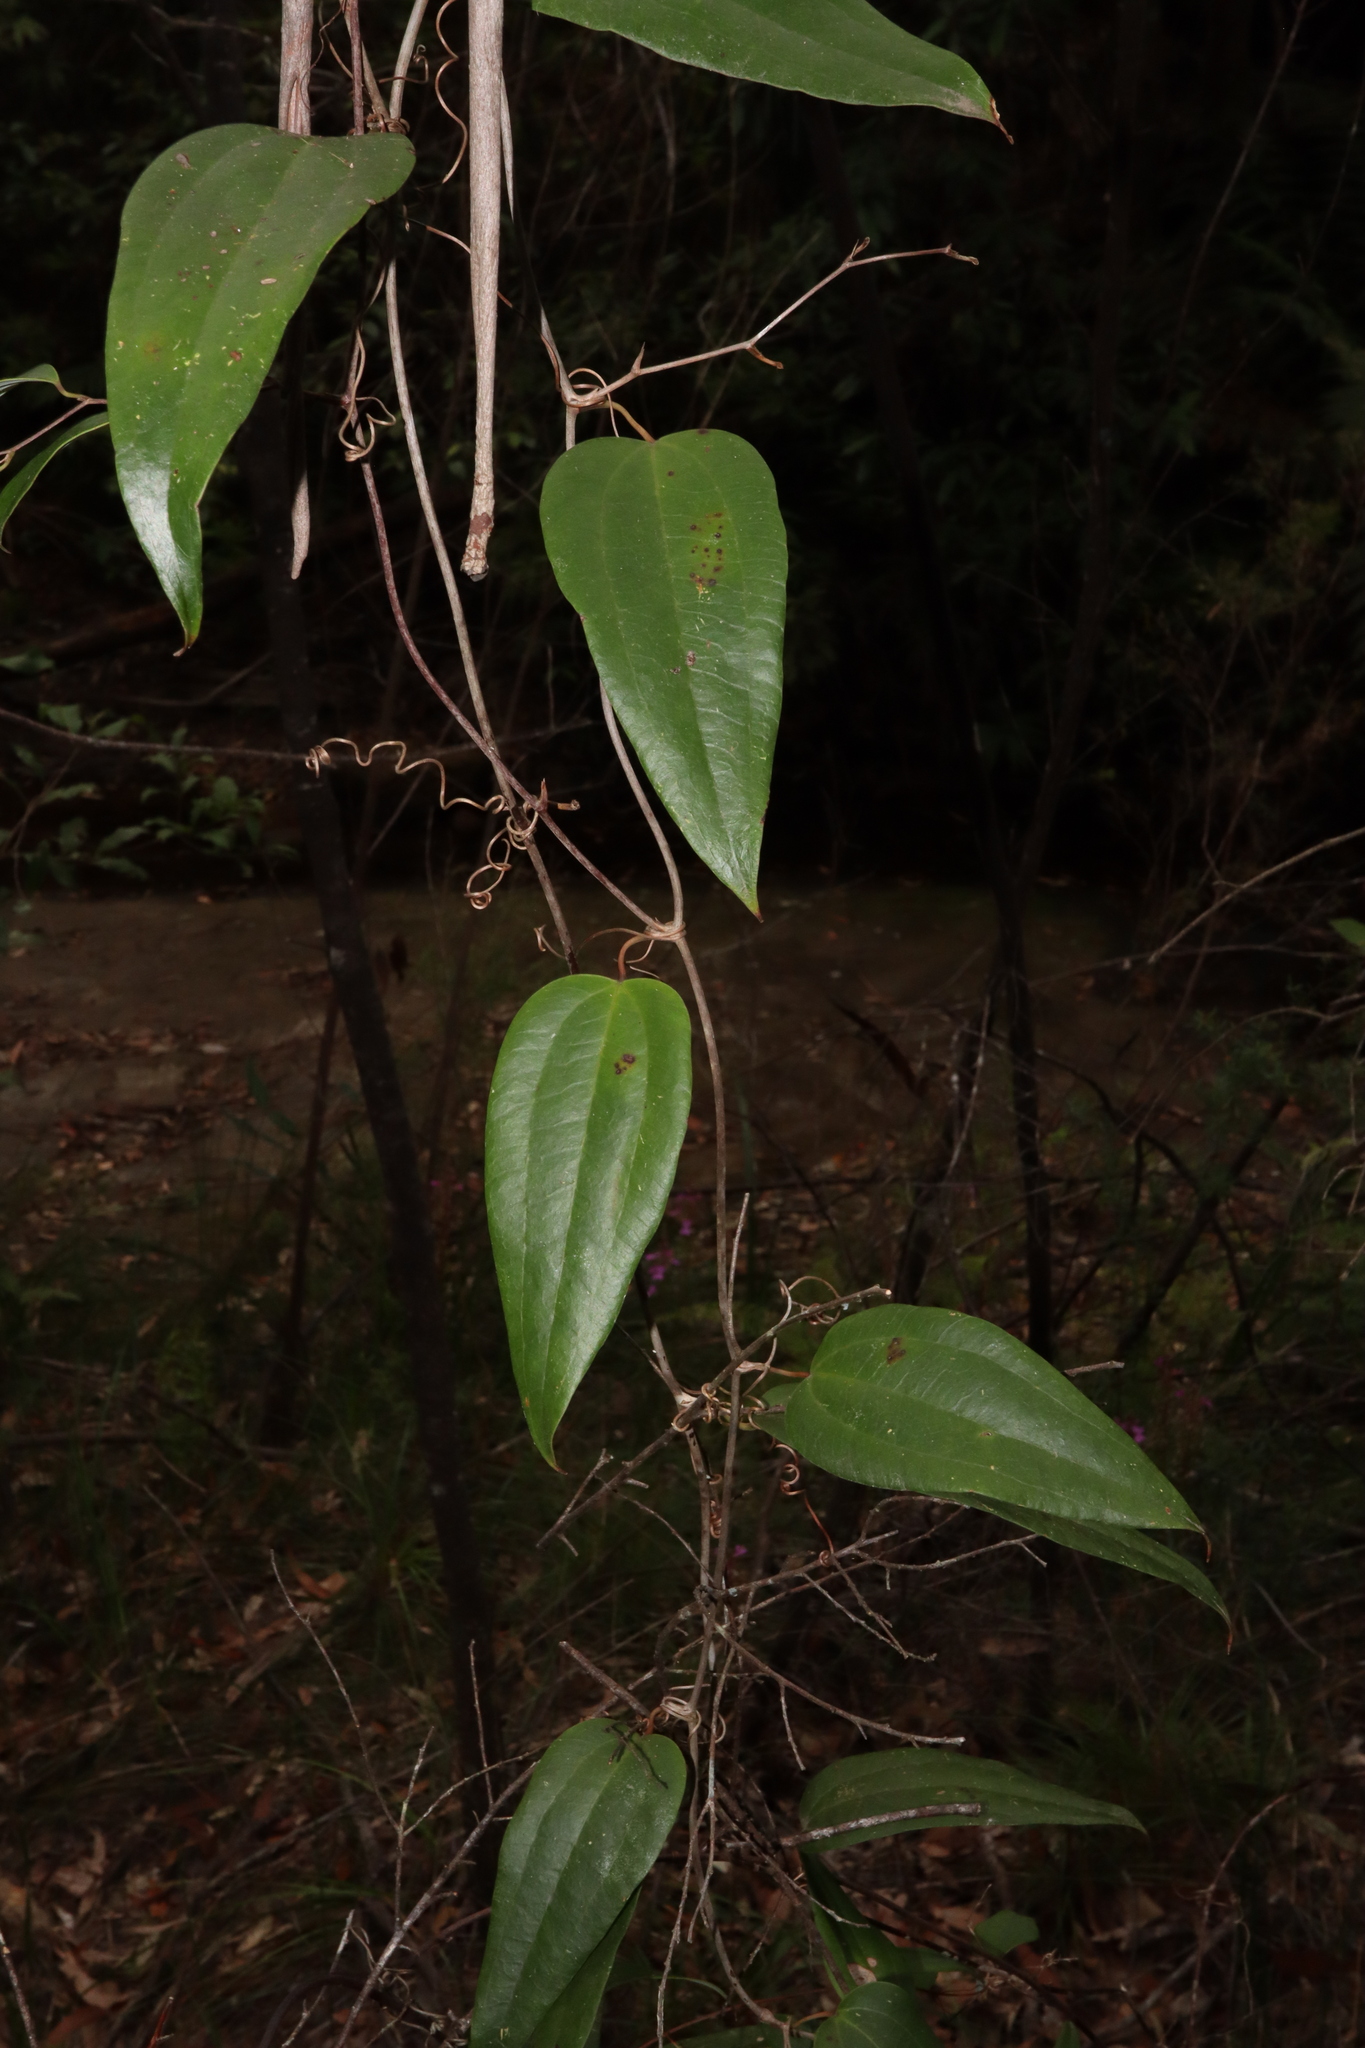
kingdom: Plantae
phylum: Tracheophyta
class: Liliopsida
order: Liliales
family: Smilacaceae
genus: Smilax
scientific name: Smilax glyciphylla
